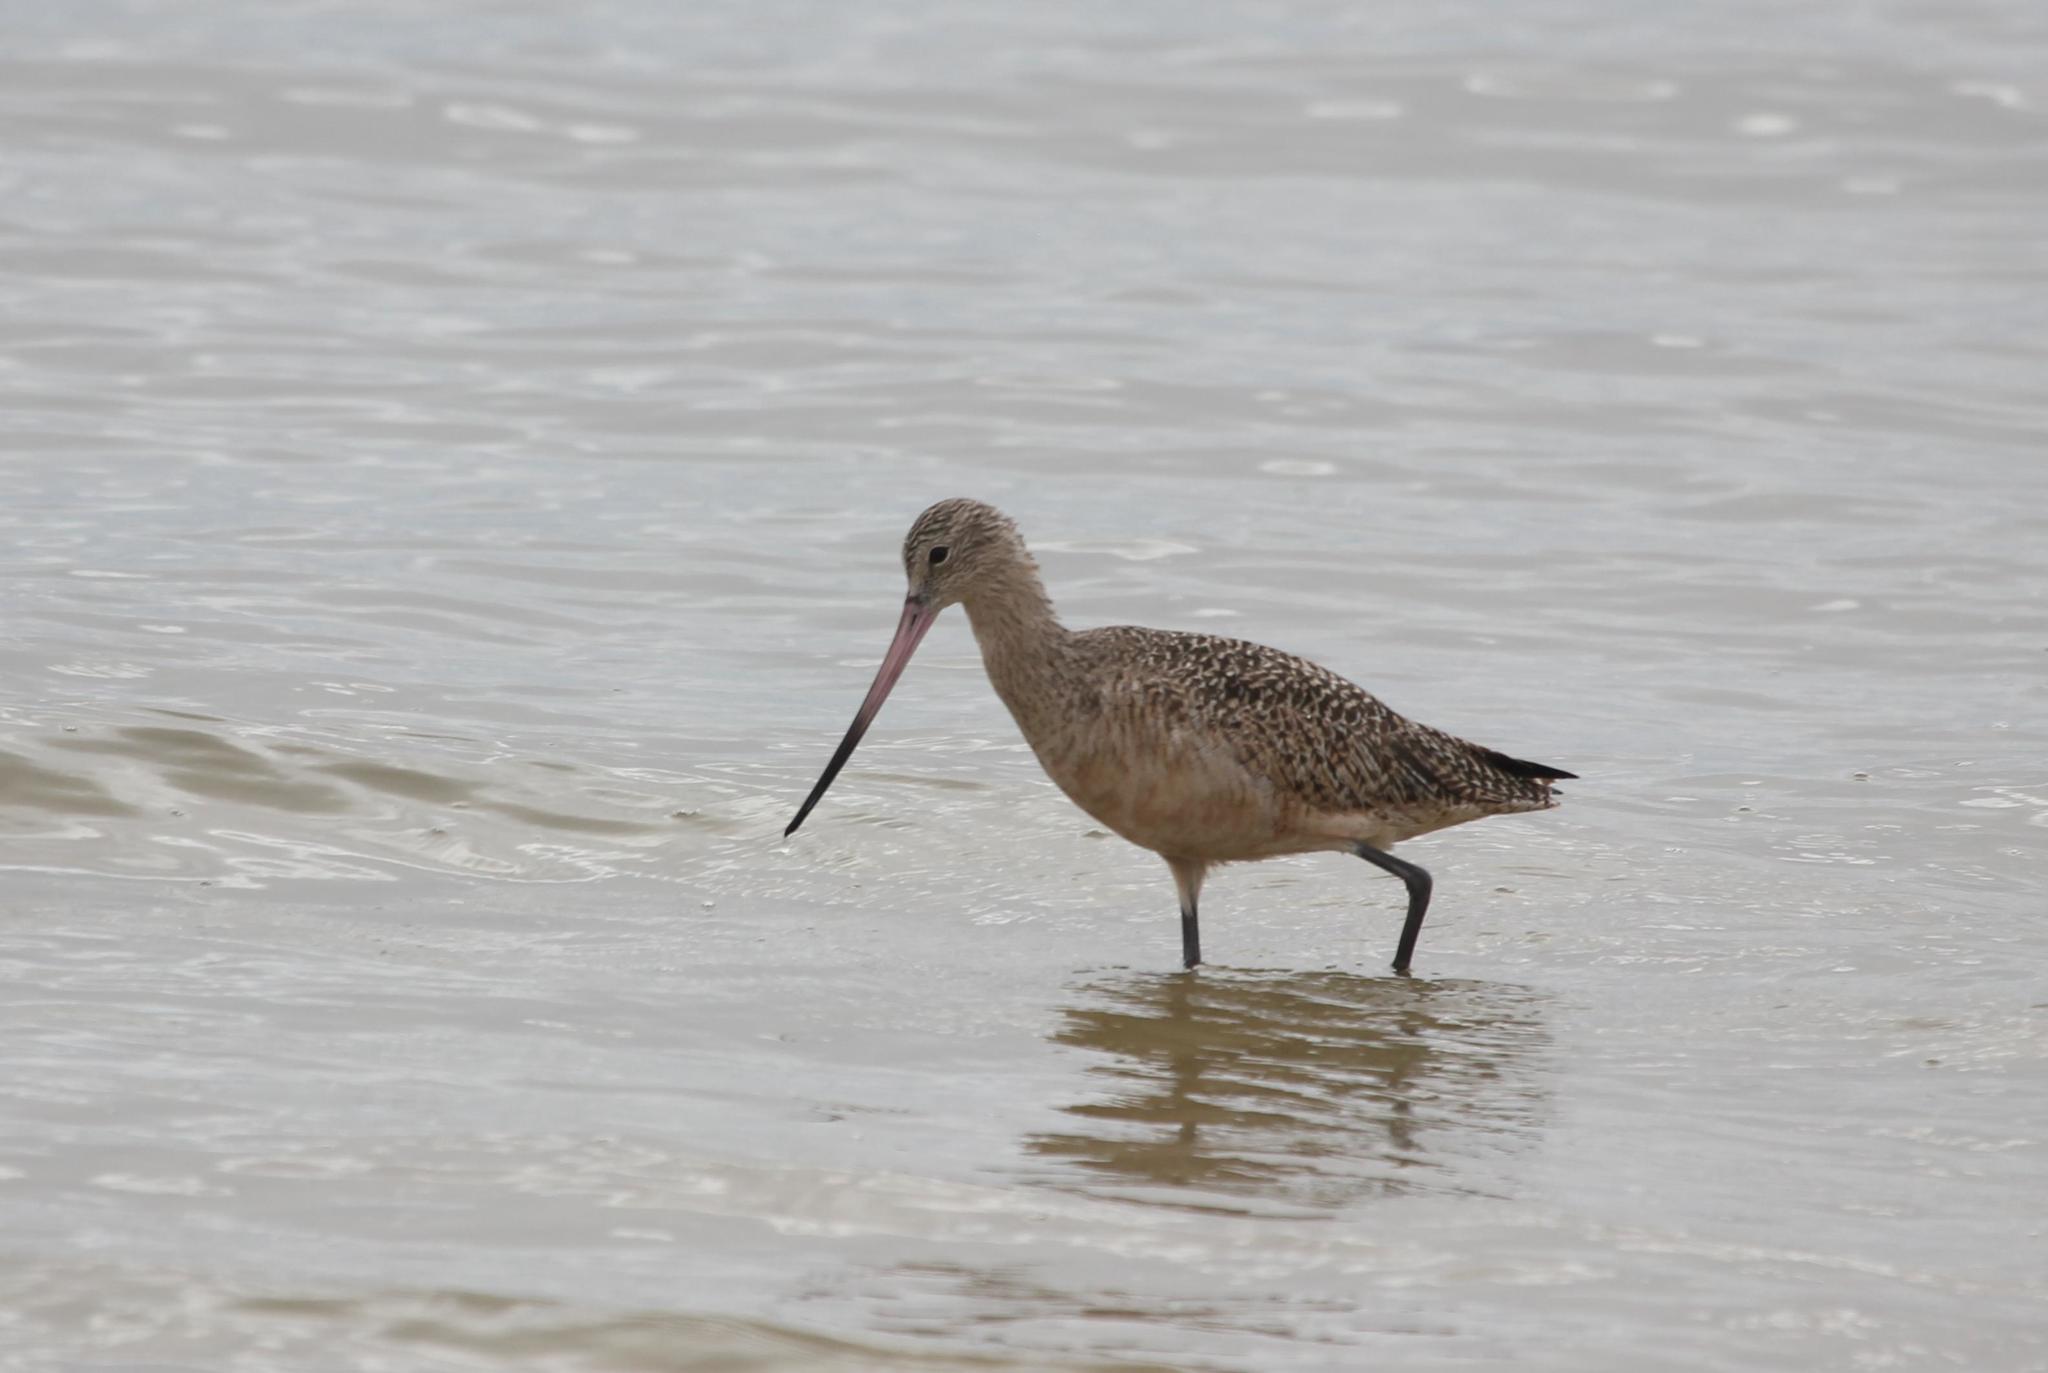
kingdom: Animalia
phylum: Chordata
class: Aves
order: Charadriiformes
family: Scolopacidae
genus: Limosa
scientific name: Limosa fedoa
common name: Marbled godwit
